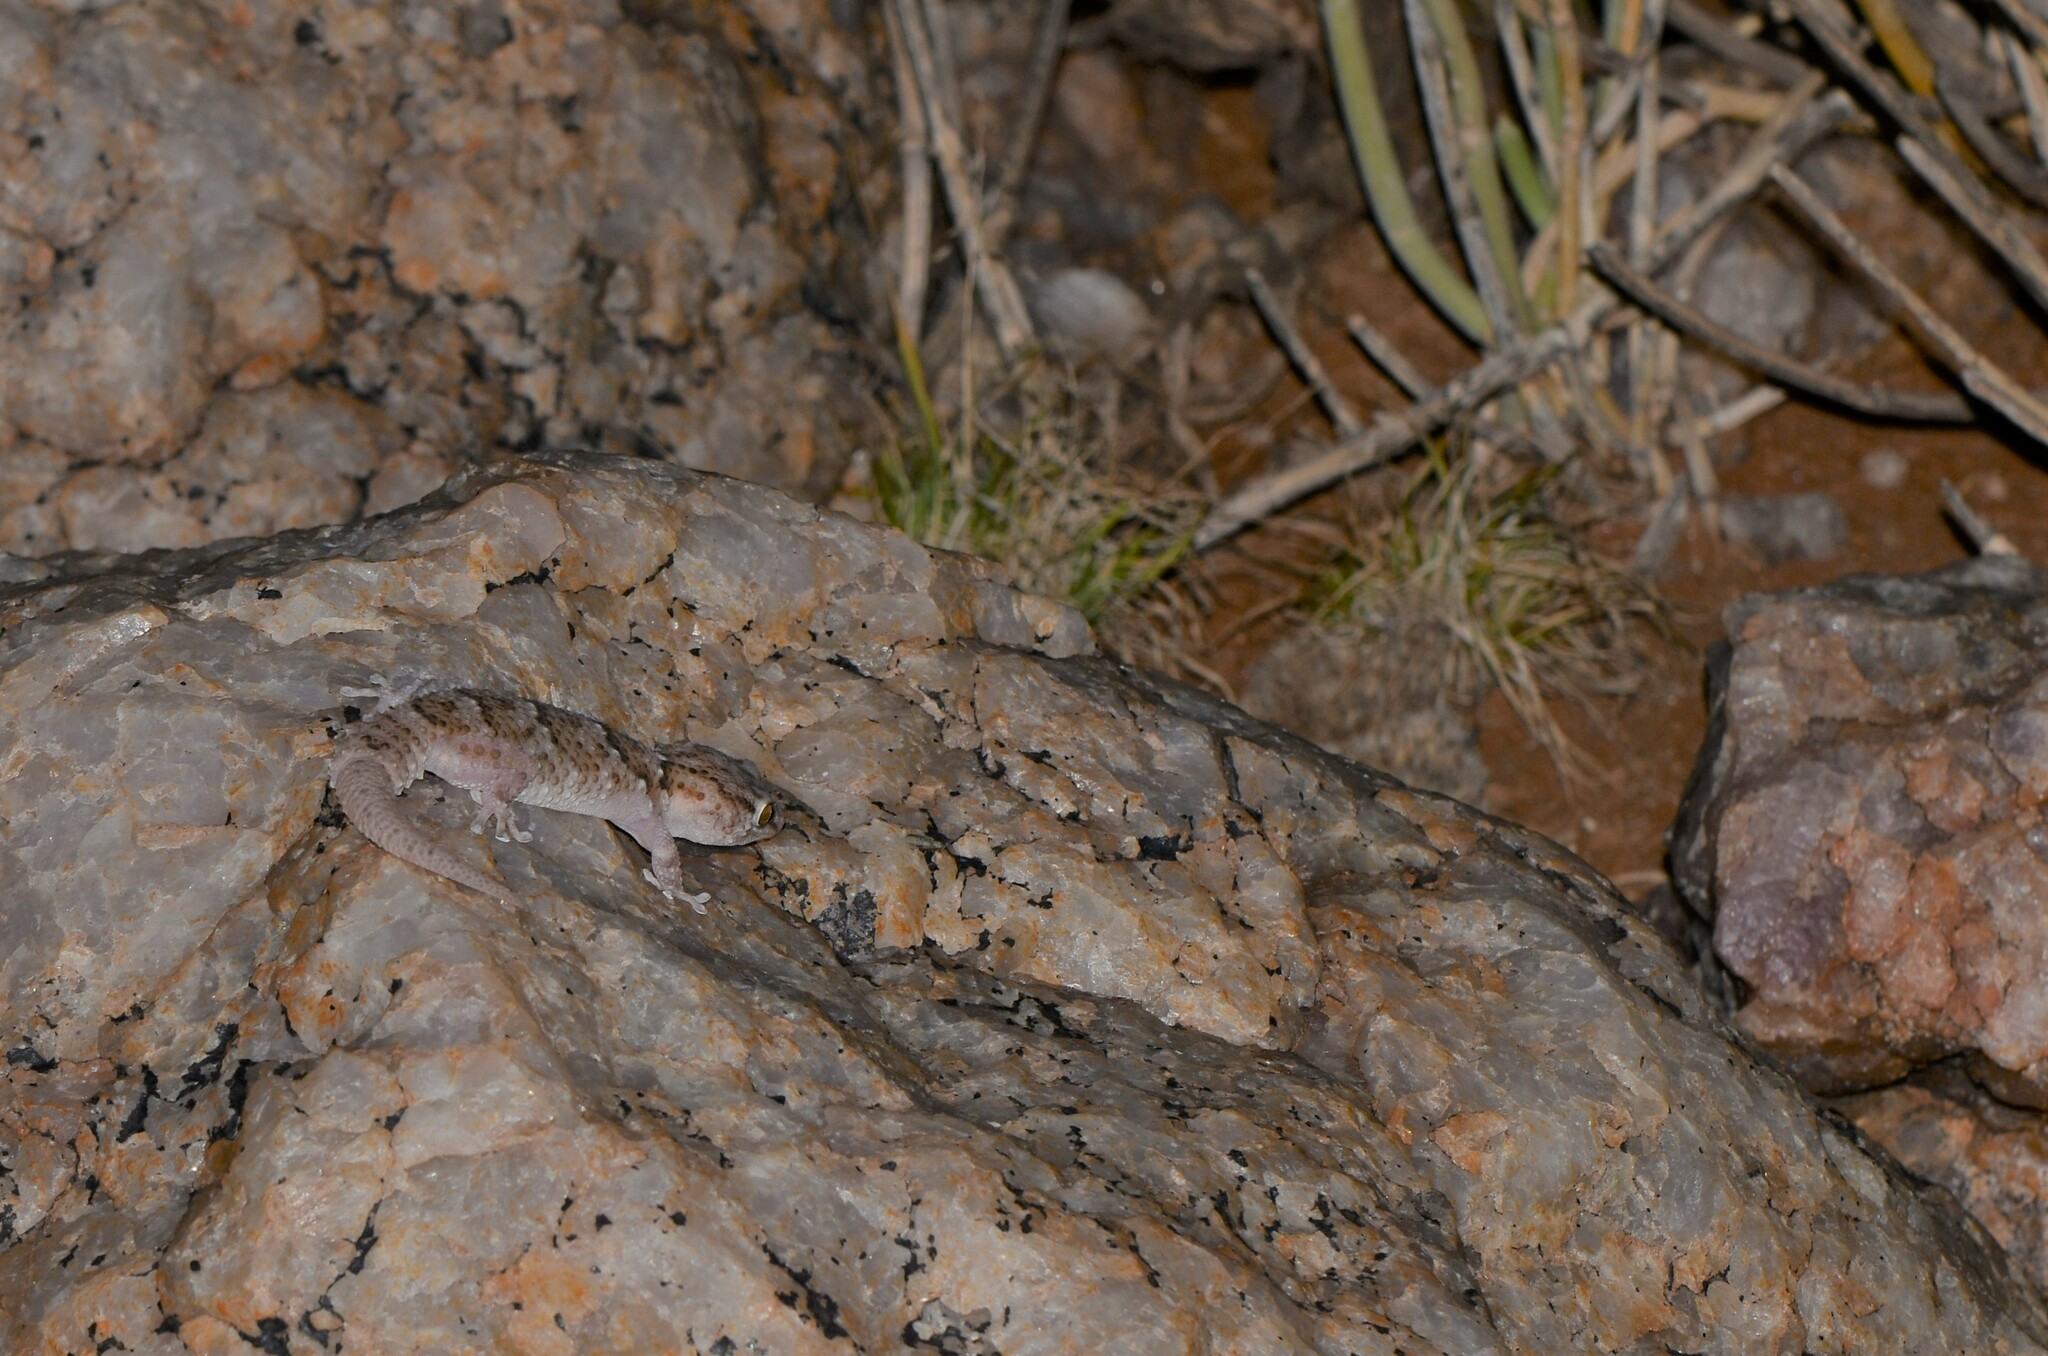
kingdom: Animalia
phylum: Chordata
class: Squamata
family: Gekkonidae
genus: Chondrodactylus
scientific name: Chondrodactylus laevigatus
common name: Fischer's thick-toed gecko
